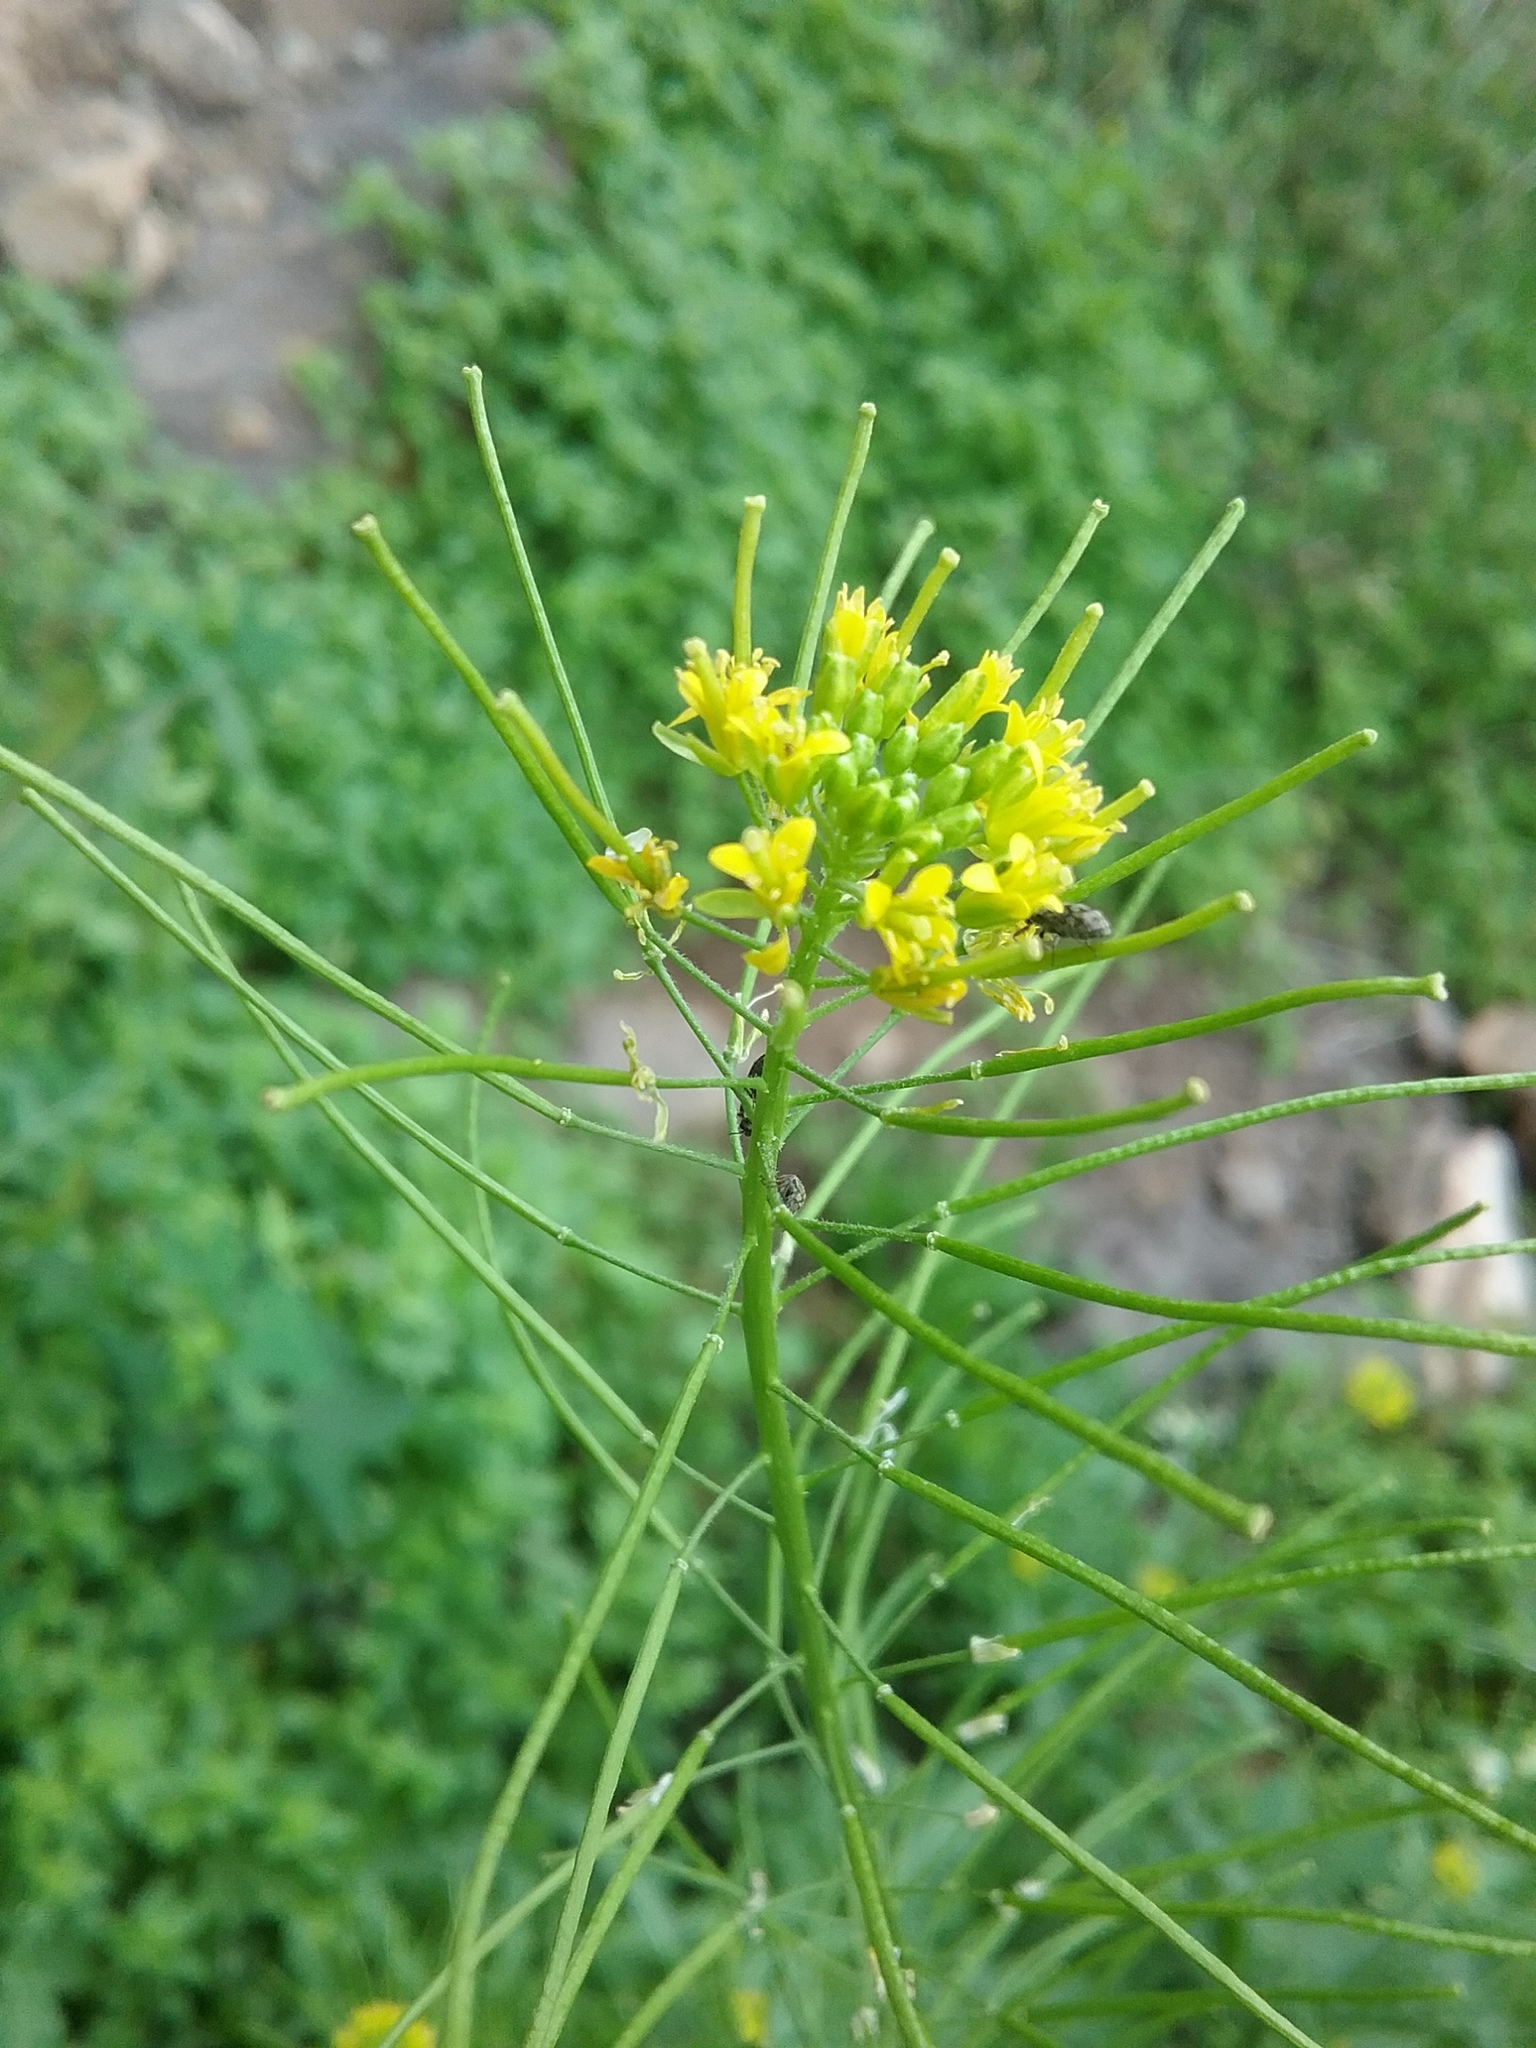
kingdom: Plantae
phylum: Tracheophyta
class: Magnoliopsida
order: Brassicales
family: Brassicaceae
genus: Sisymbrium
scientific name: Sisymbrium irio
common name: London rocket
